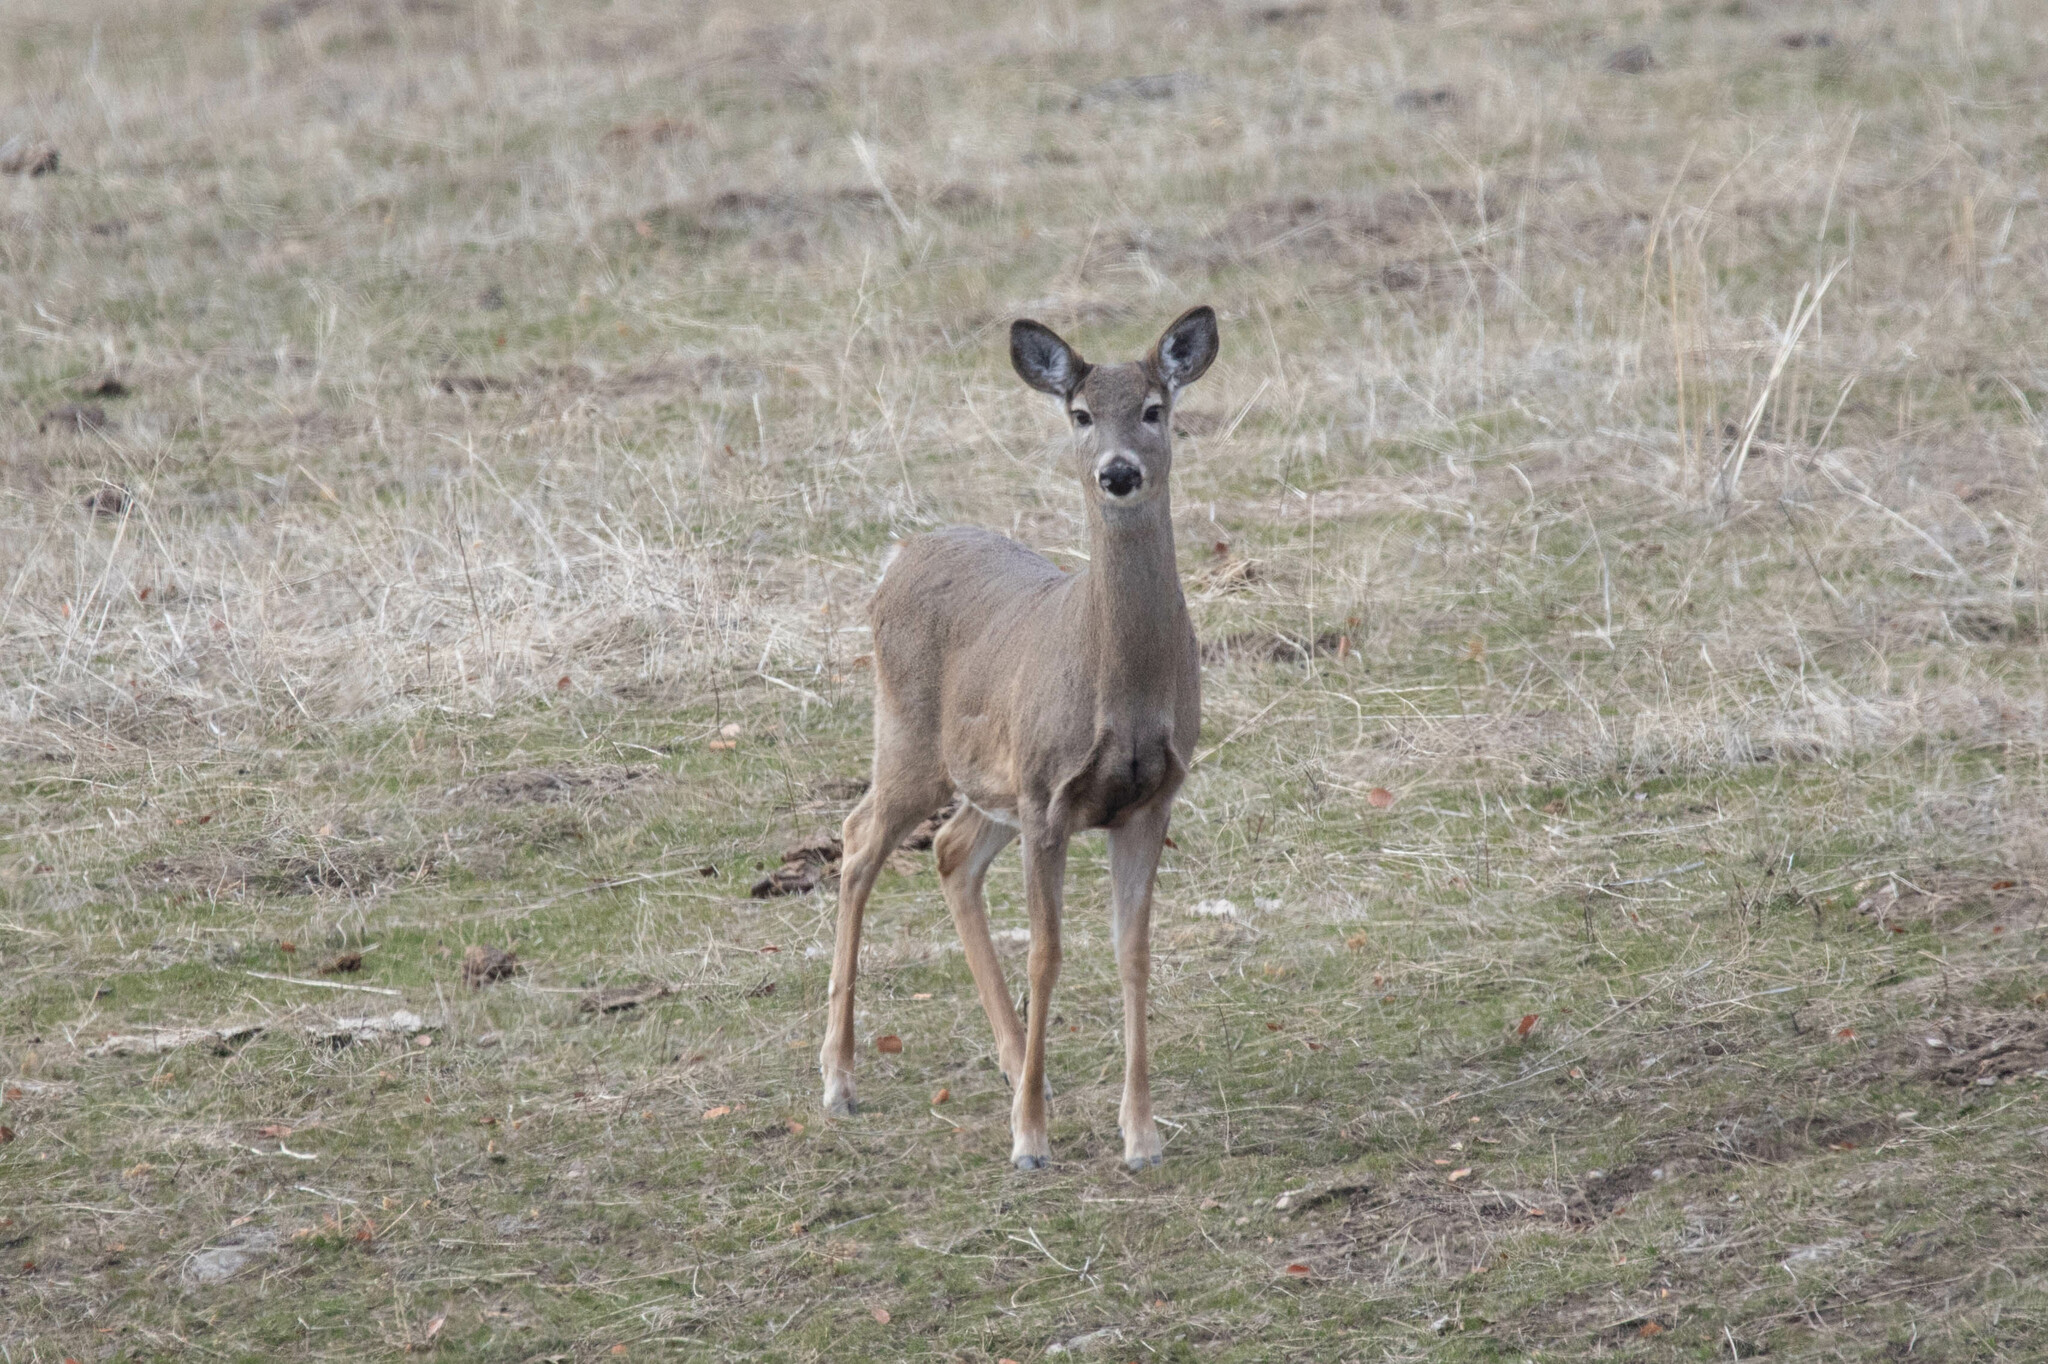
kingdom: Animalia
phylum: Chordata
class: Mammalia
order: Artiodactyla
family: Cervidae
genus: Odocoileus
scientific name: Odocoileus virginianus
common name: White-tailed deer
